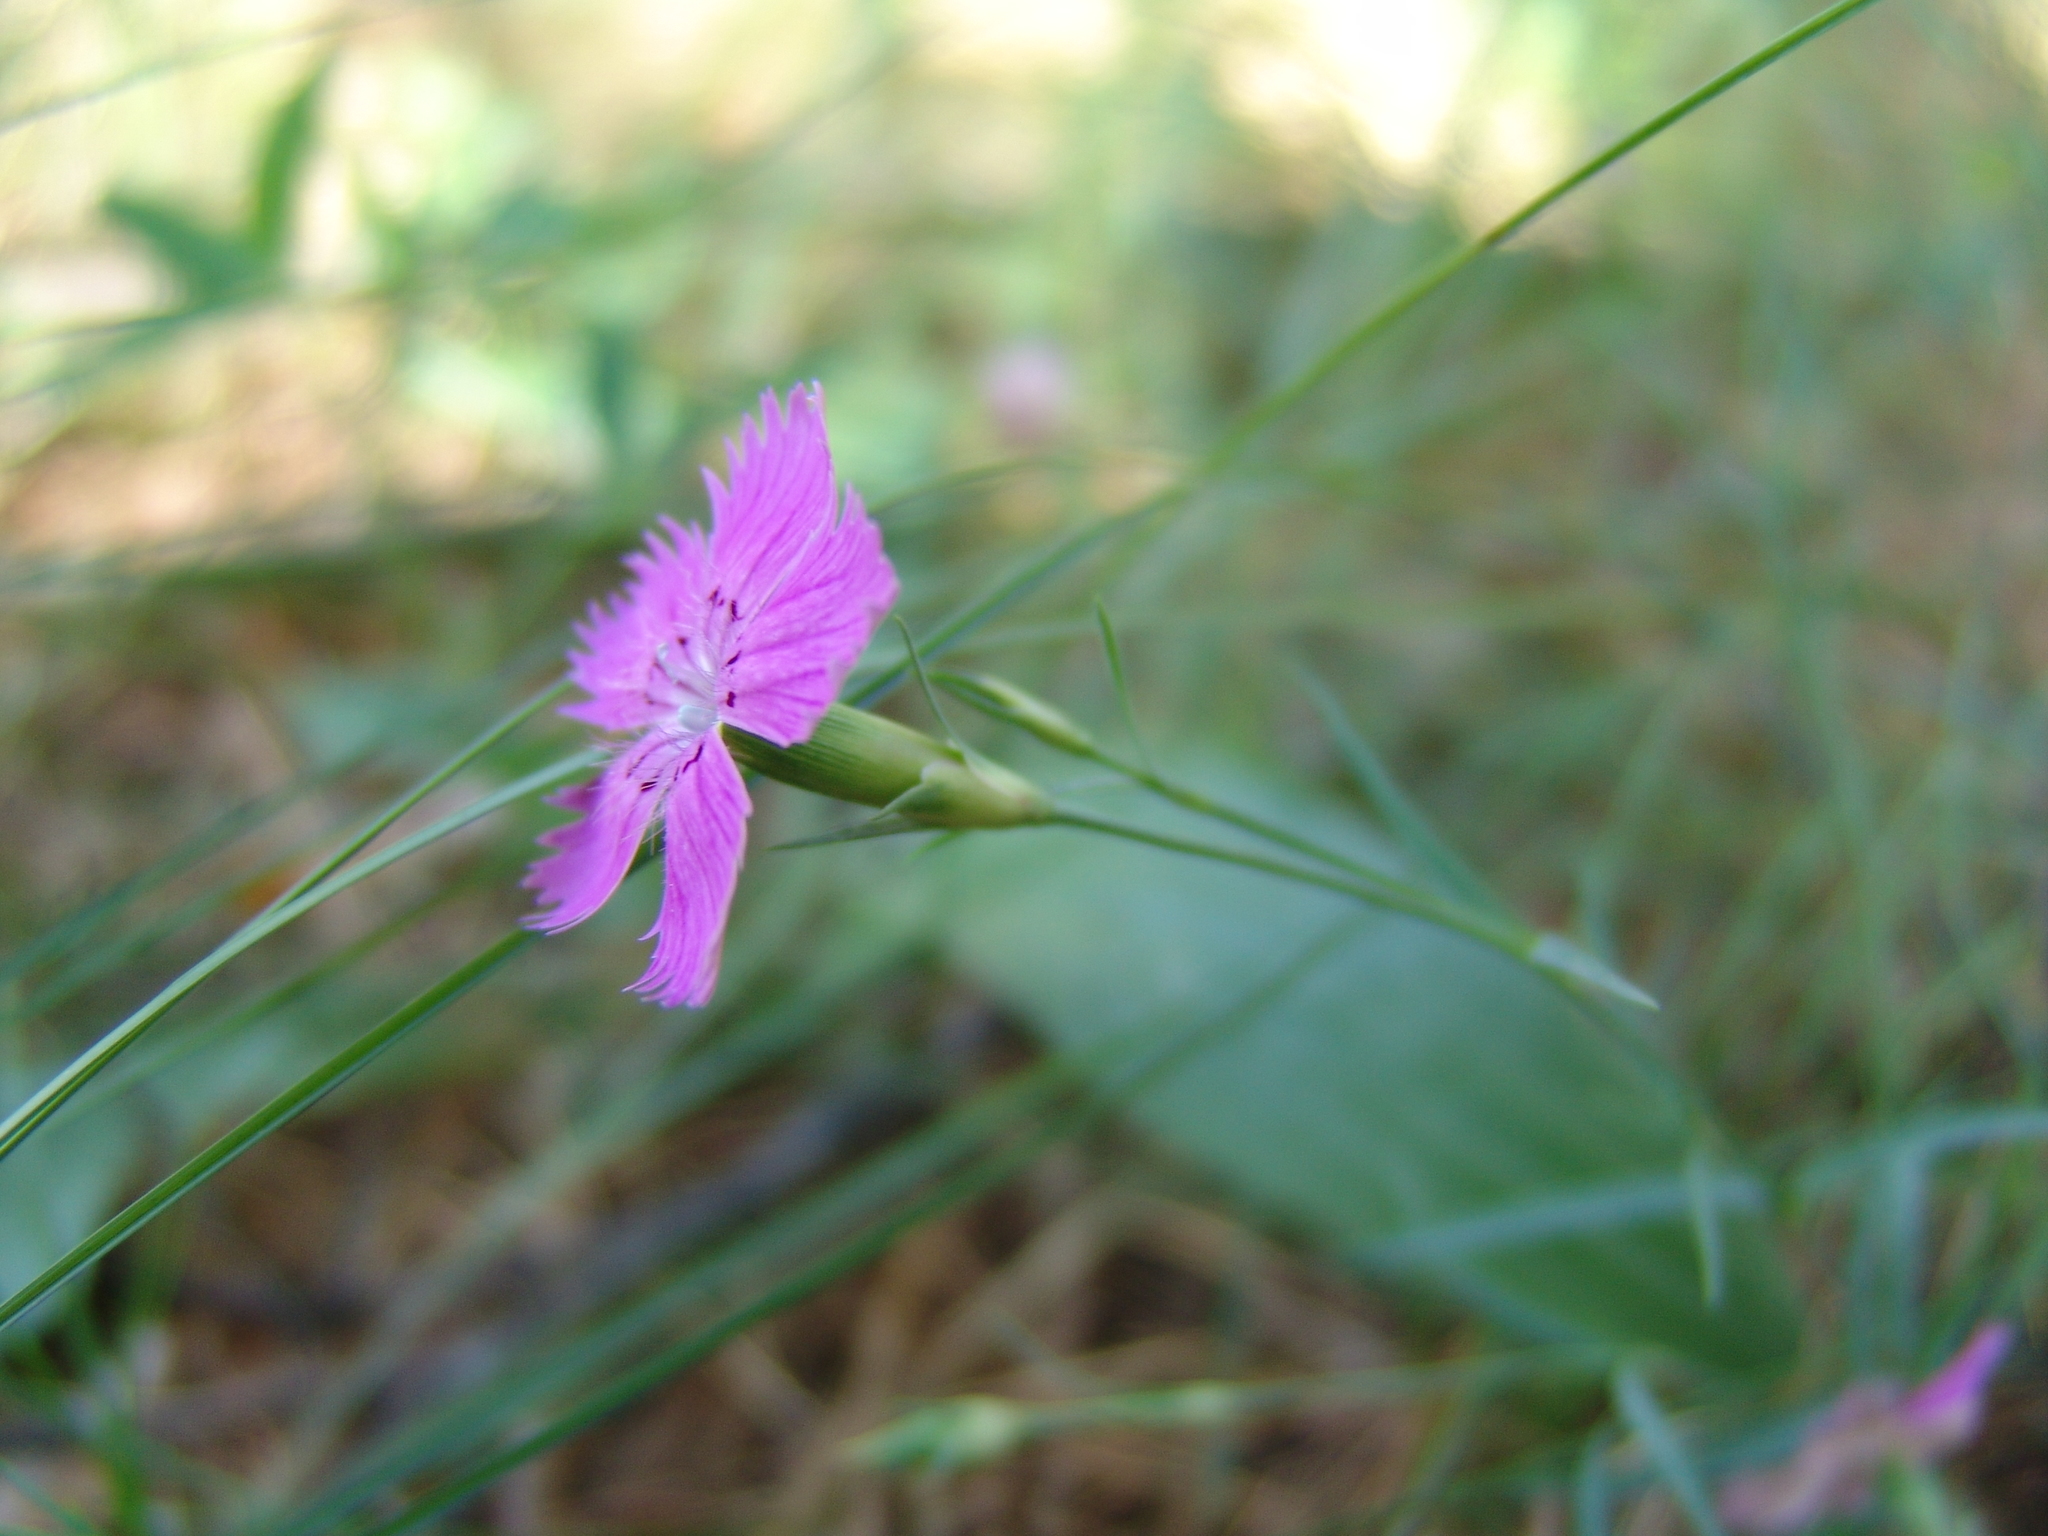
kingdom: Plantae
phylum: Tracheophyta
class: Magnoliopsida
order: Caryophyllales
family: Caryophyllaceae
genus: Dianthus
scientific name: Dianthus chinensis
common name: Rainbow pink
